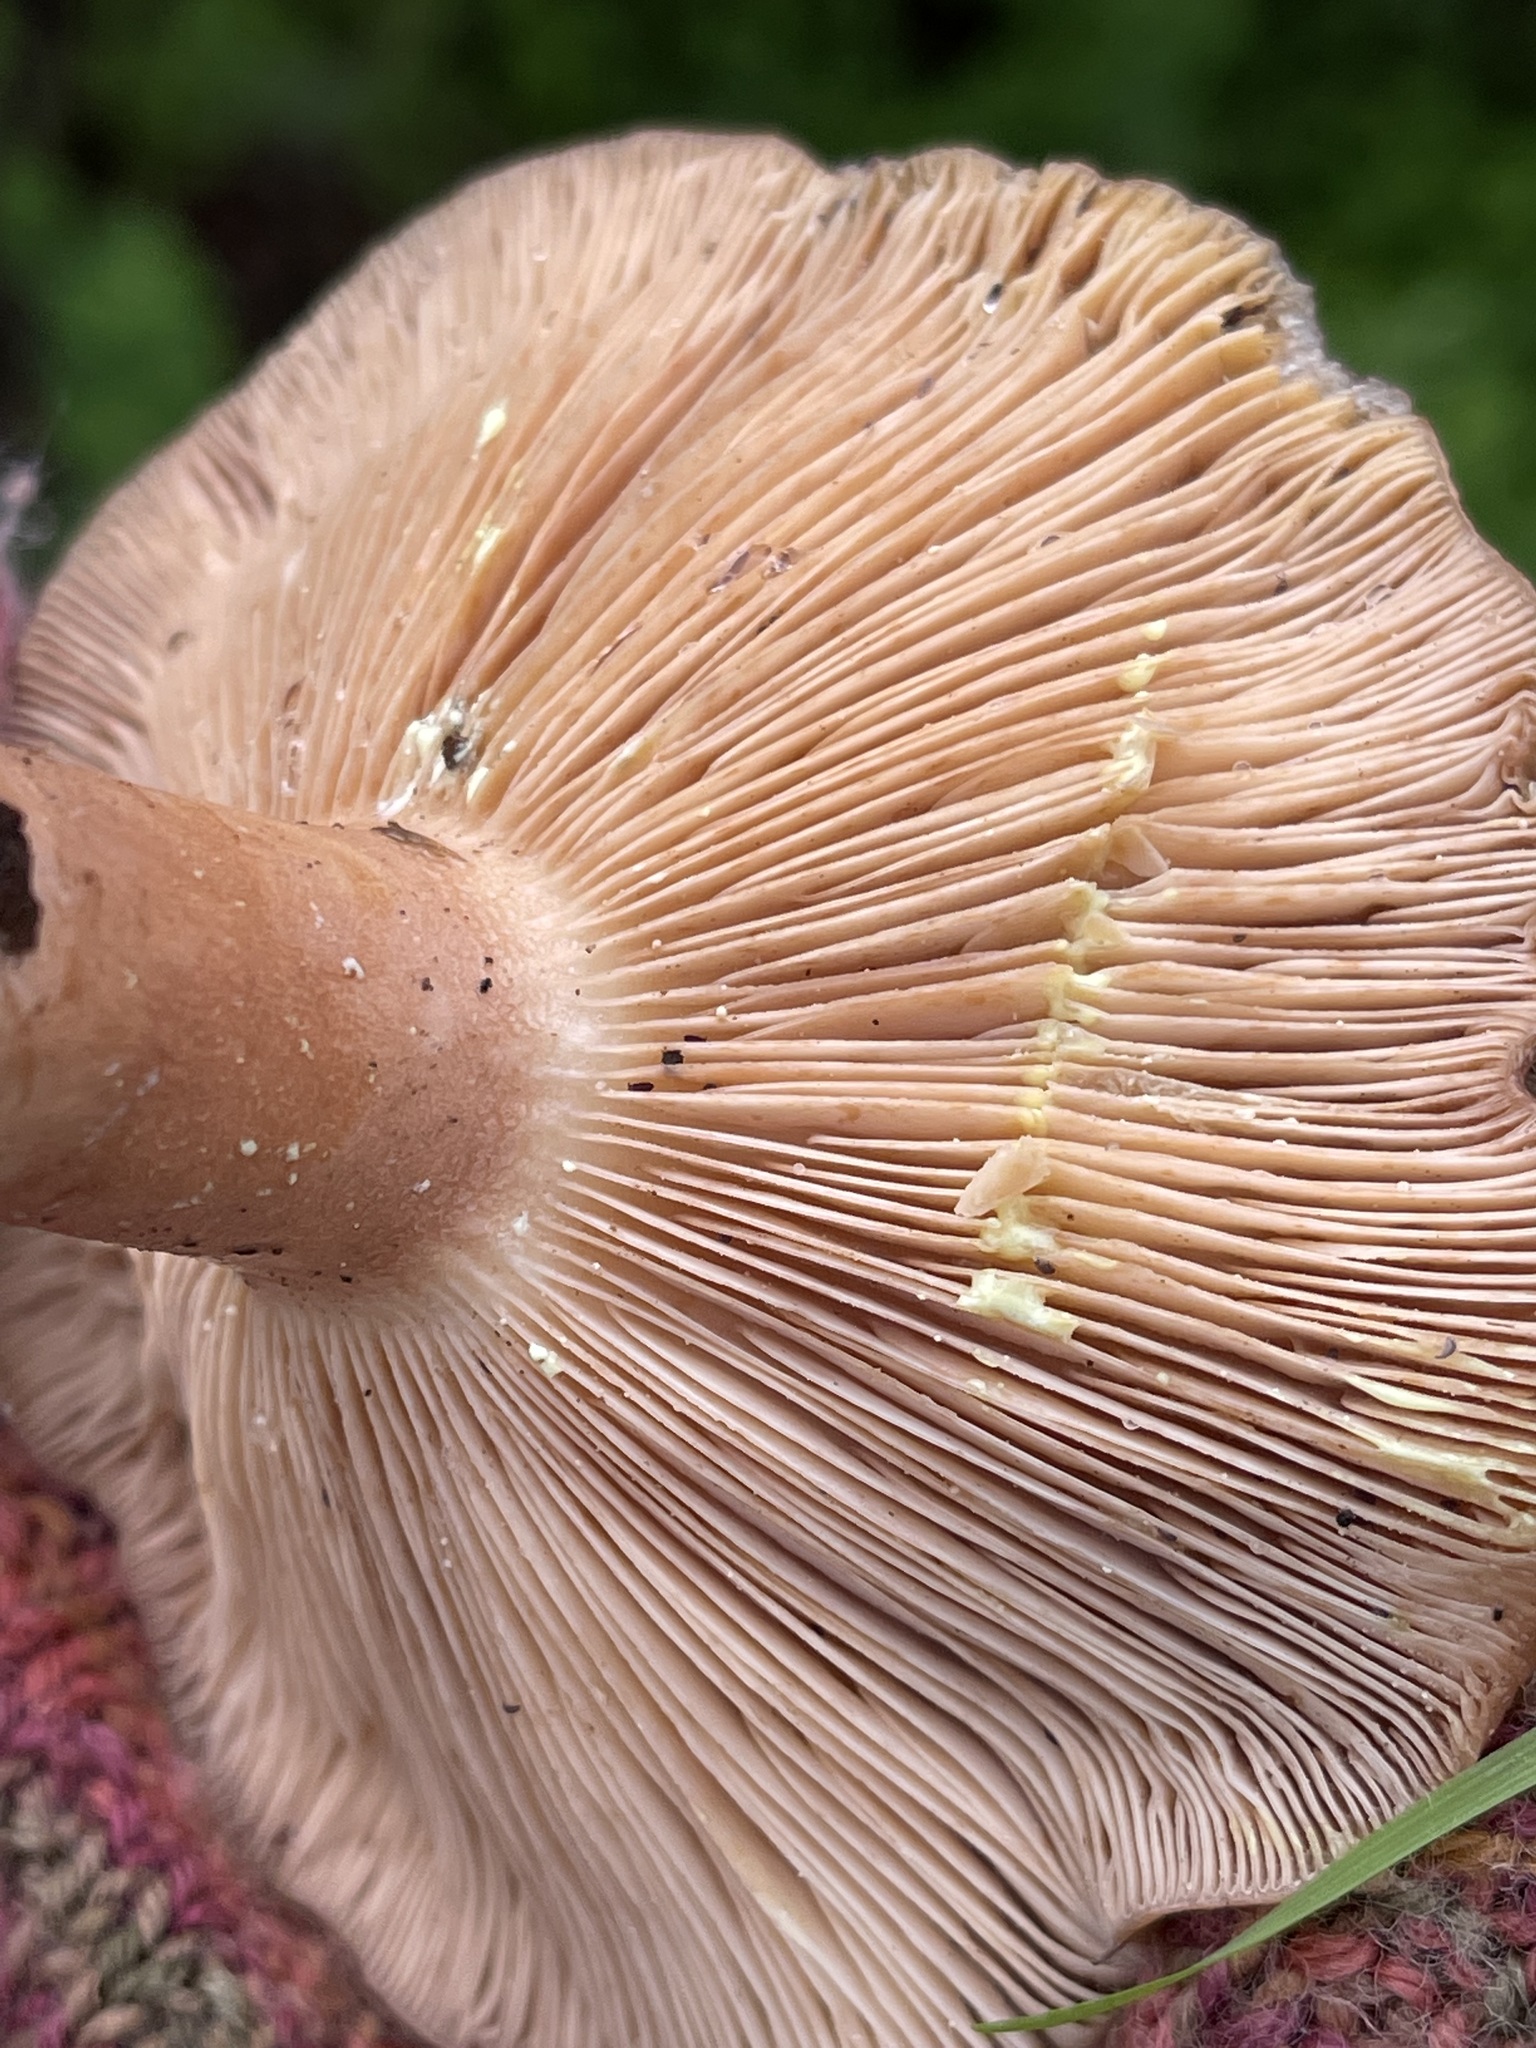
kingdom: Fungi
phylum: Basidiomycota
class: Agaricomycetes
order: Russulales
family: Russulaceae
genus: Lactarius
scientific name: Lactarius xanthogalactus
